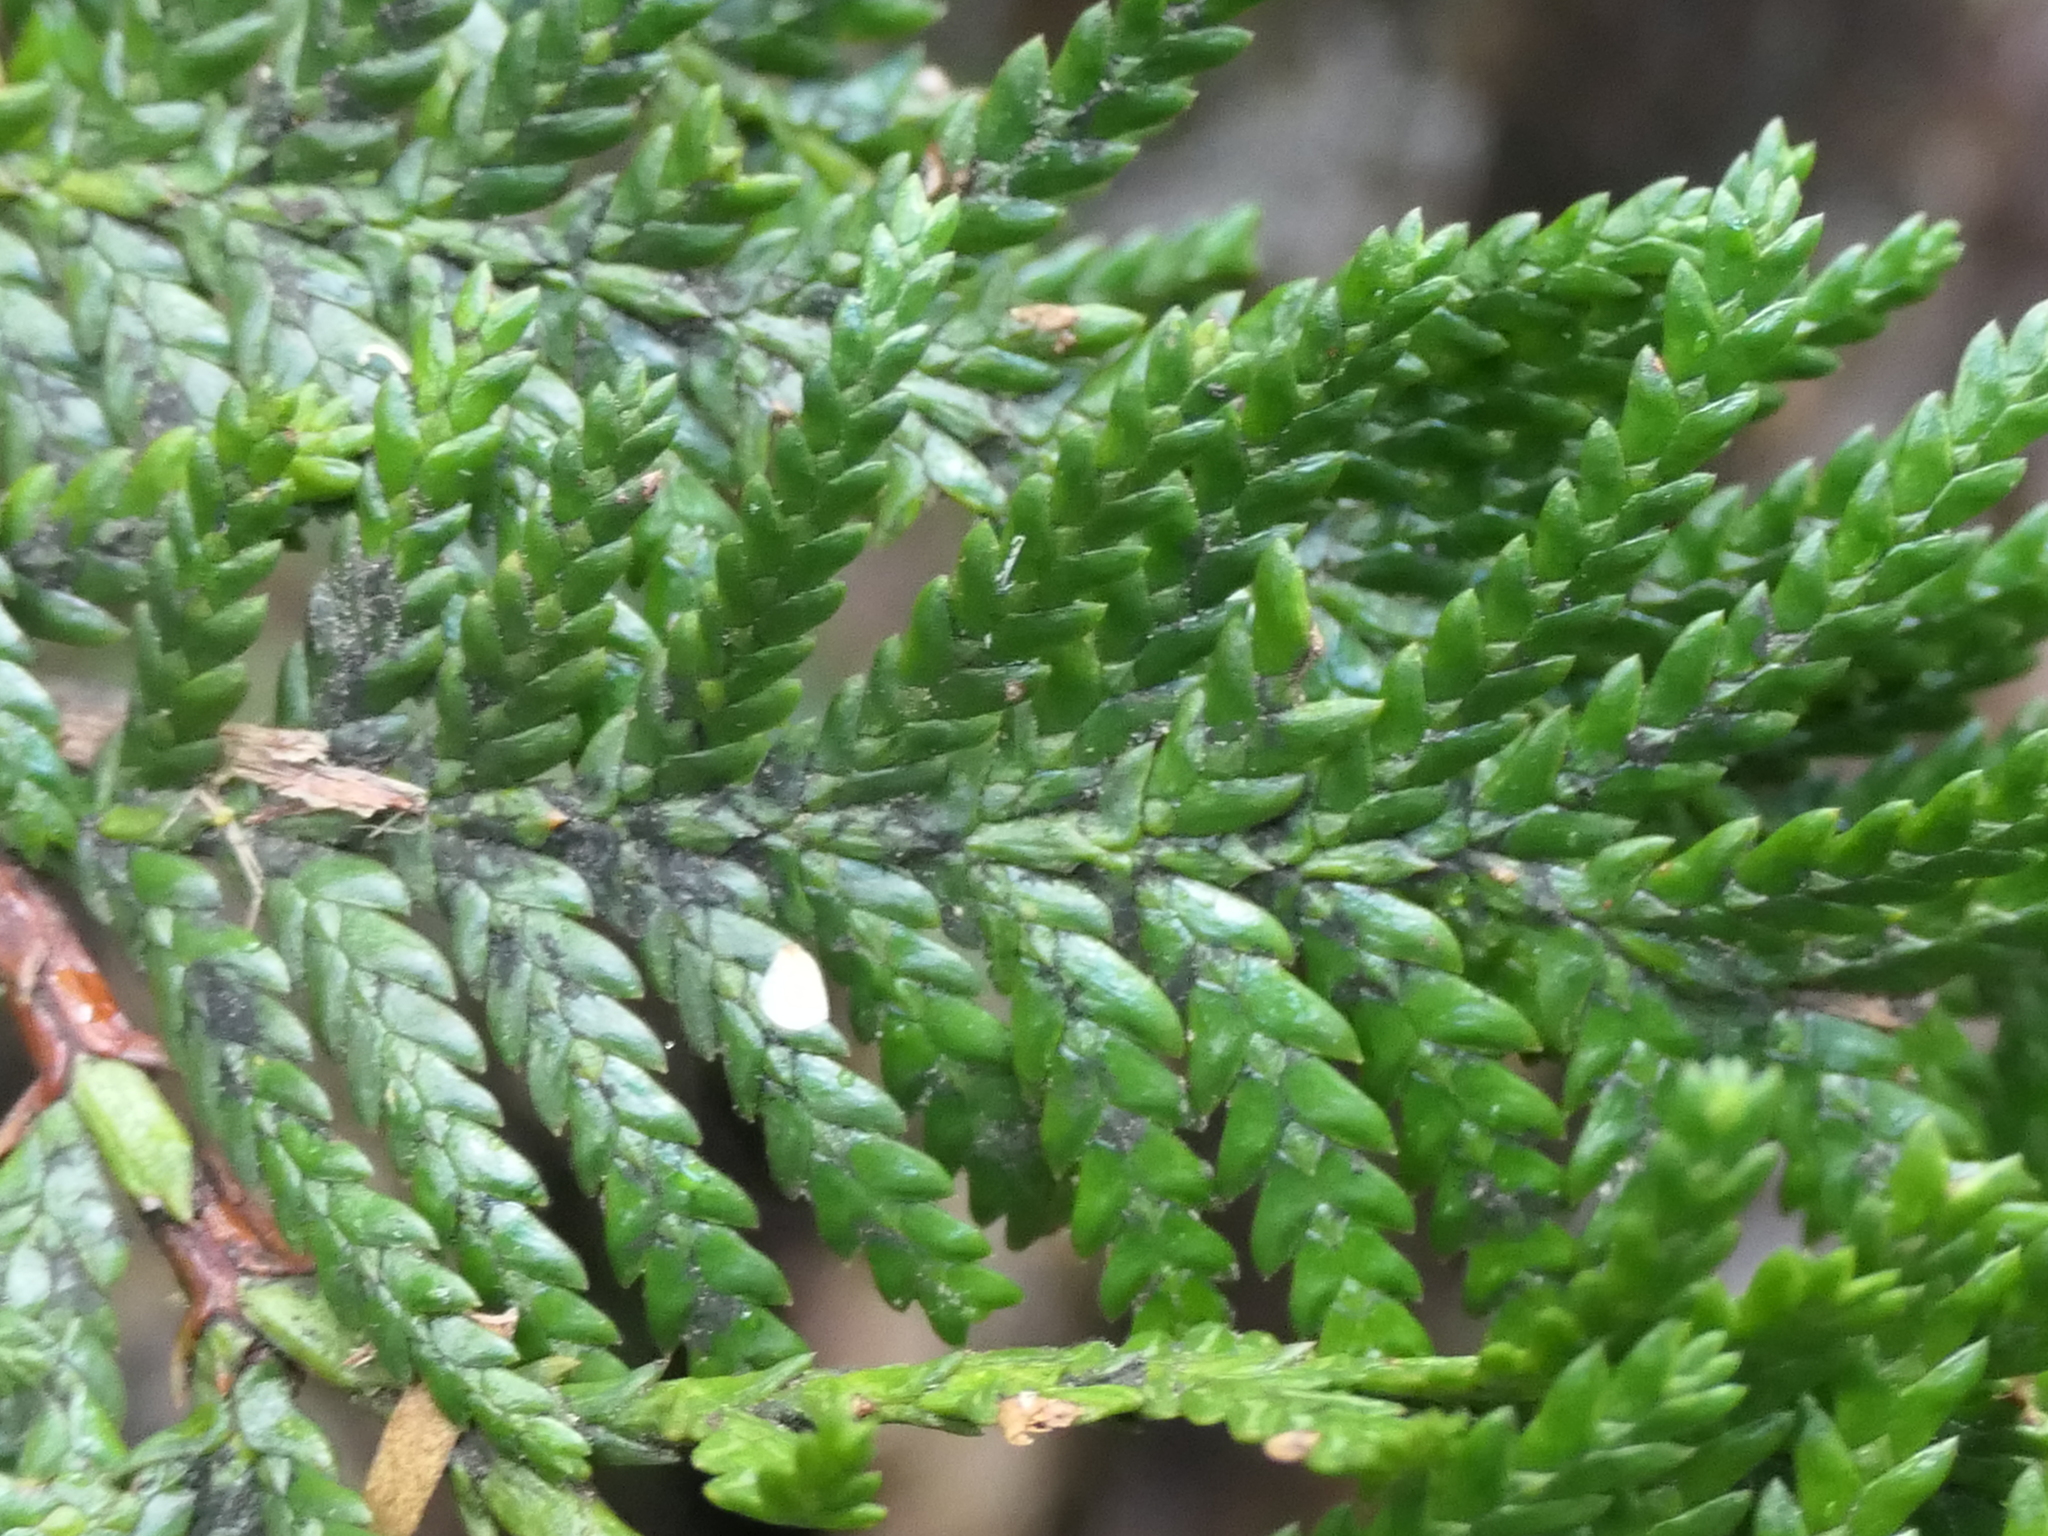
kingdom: Plantae
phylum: Tracheophyta
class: Pinopsida
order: Pinales
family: Cupressaceae
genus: Libocedrus
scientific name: Libocedrus plumosa
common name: New zealand cedar
